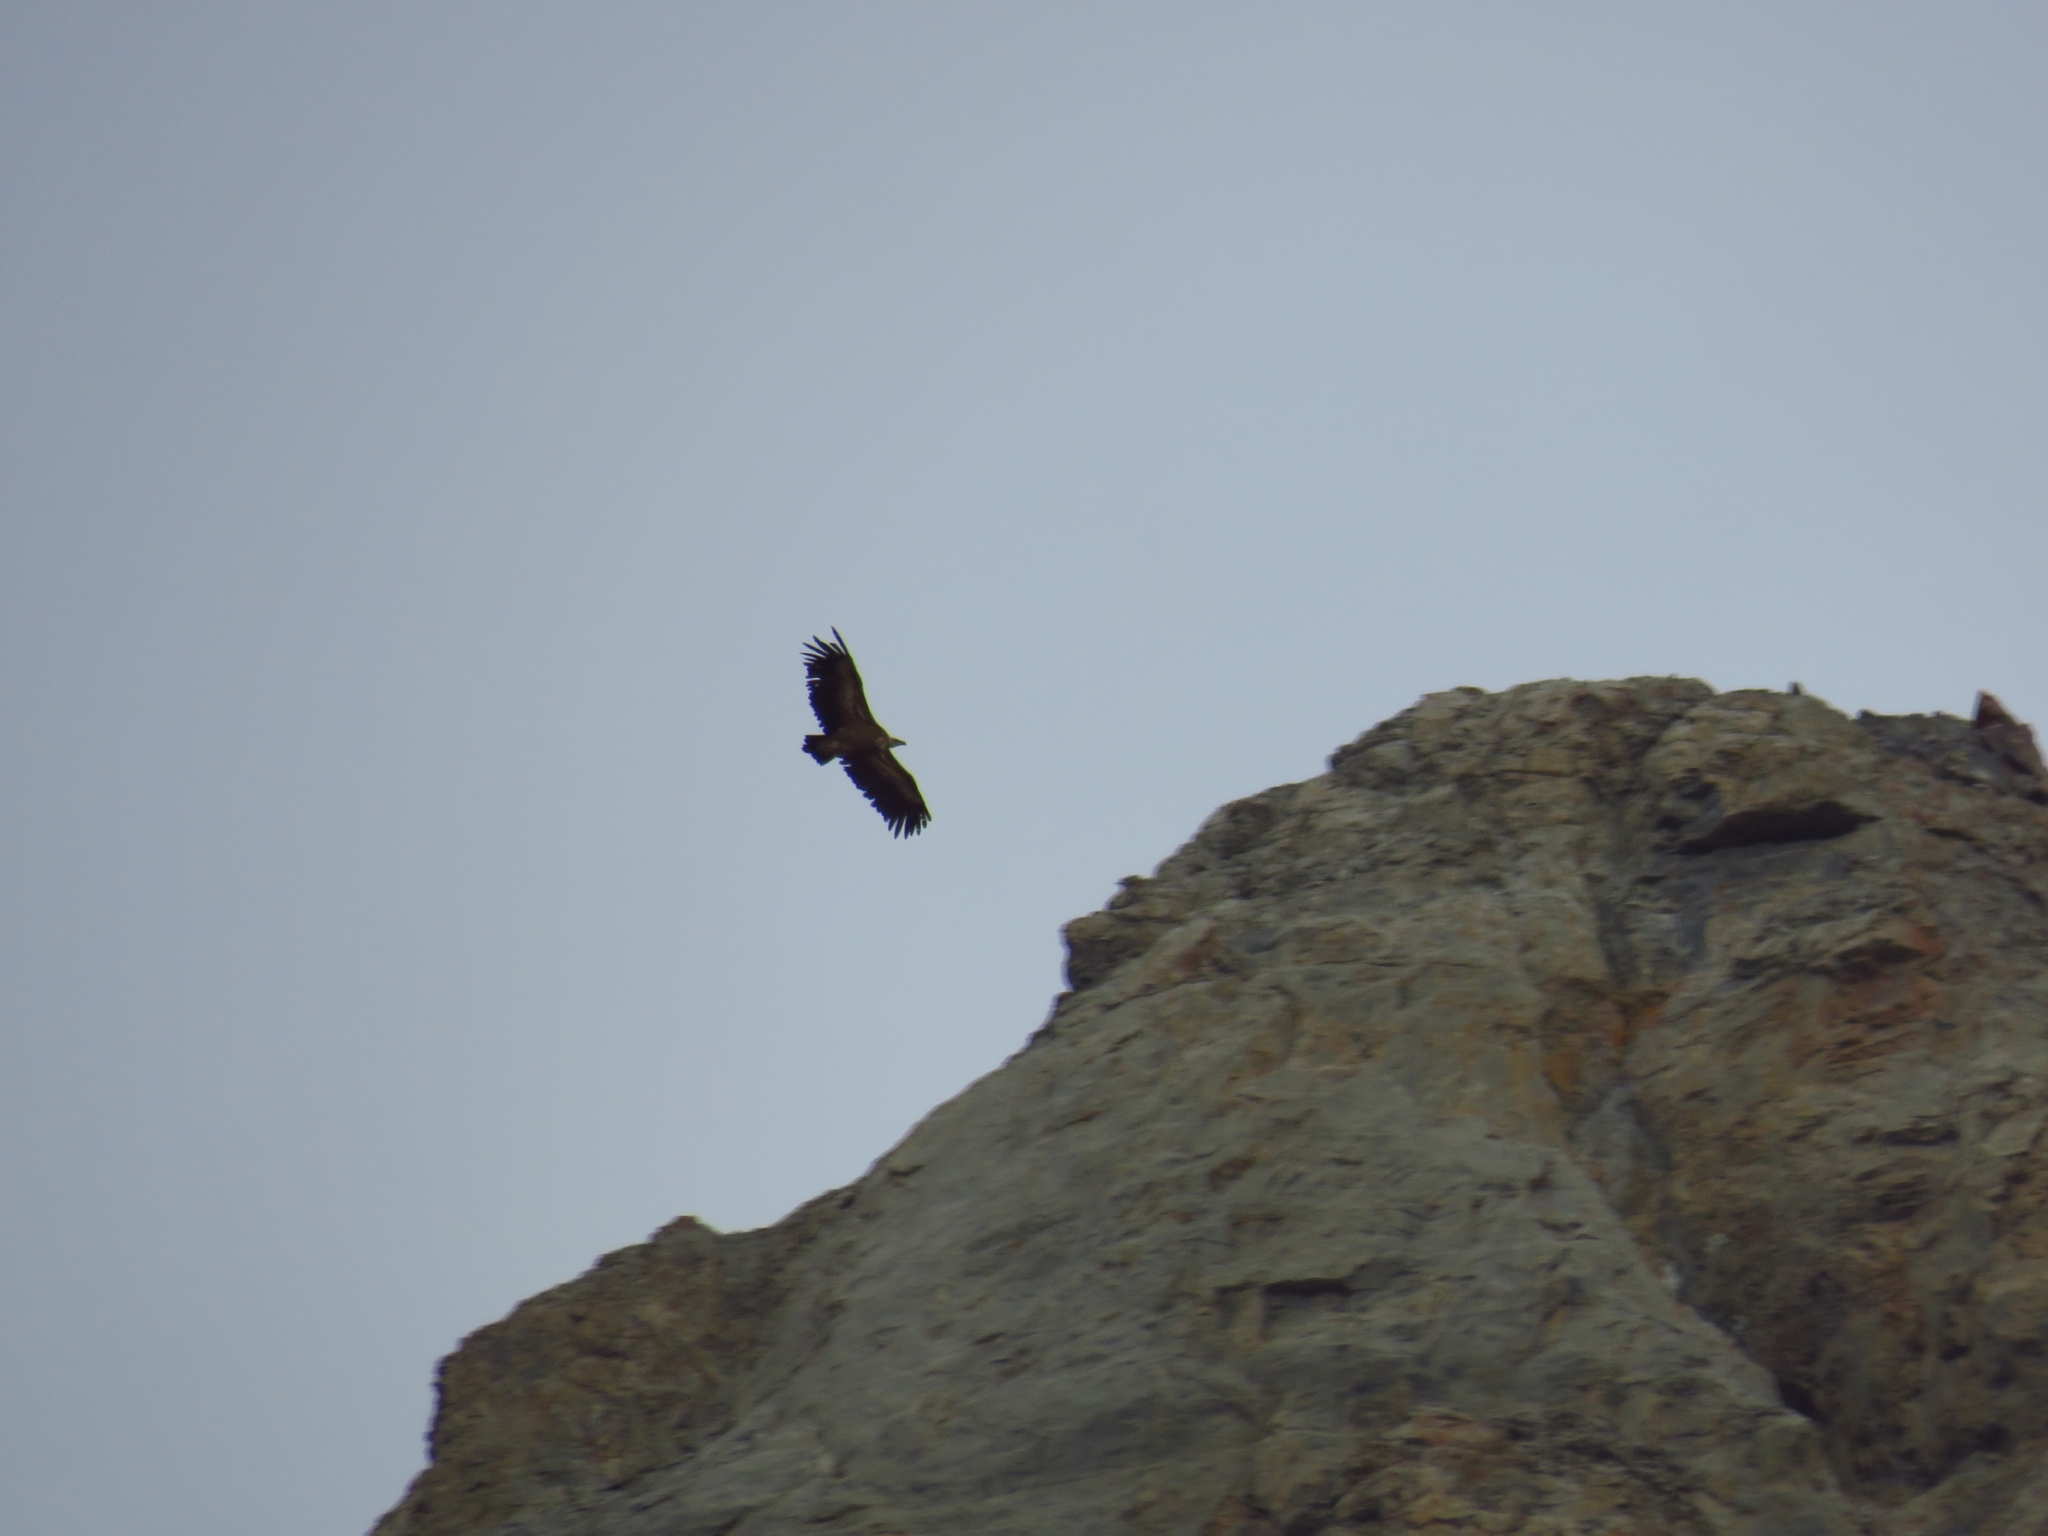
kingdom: Animalia
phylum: Chordata
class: Aves
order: Accipitriformes
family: Accipitridae
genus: Gyps
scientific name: Gyps fulvus
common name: Griffon vulture
